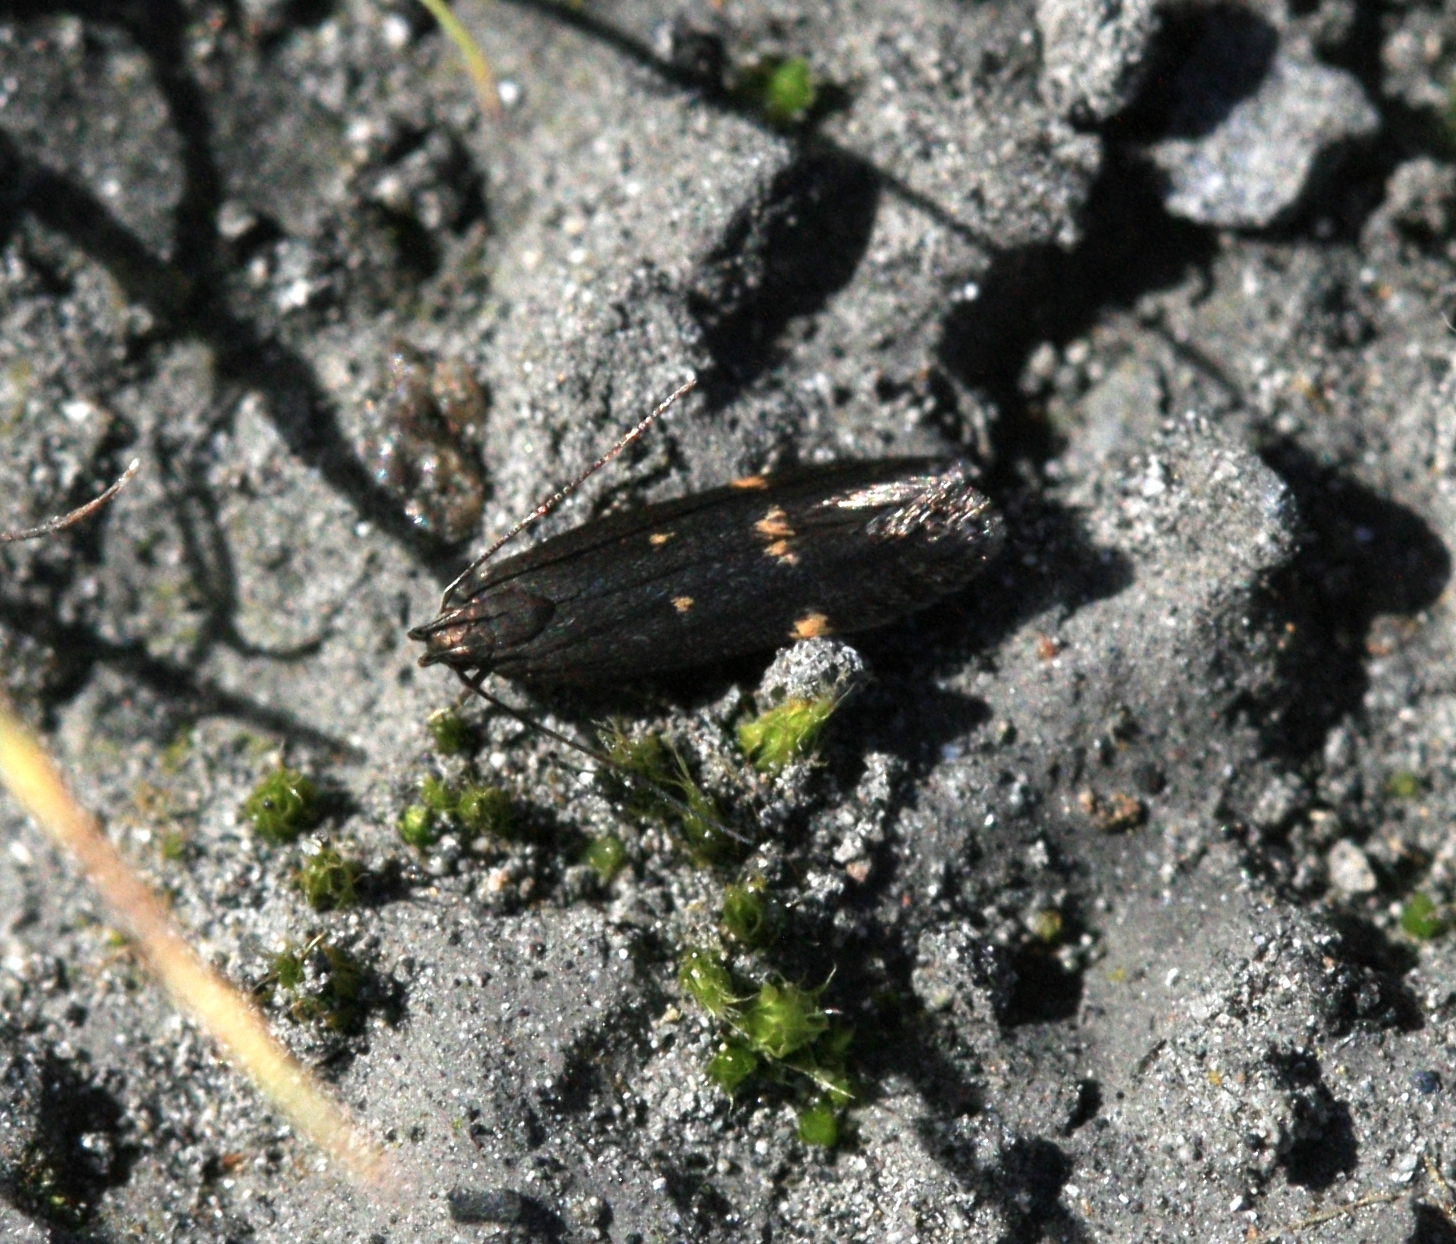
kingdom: Animalia
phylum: Arthropoda
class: Insecta
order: Lepidoptera
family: Gelechiidae
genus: Aproaerema
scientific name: Aproaerema anthyllidella
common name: Vetch sober
